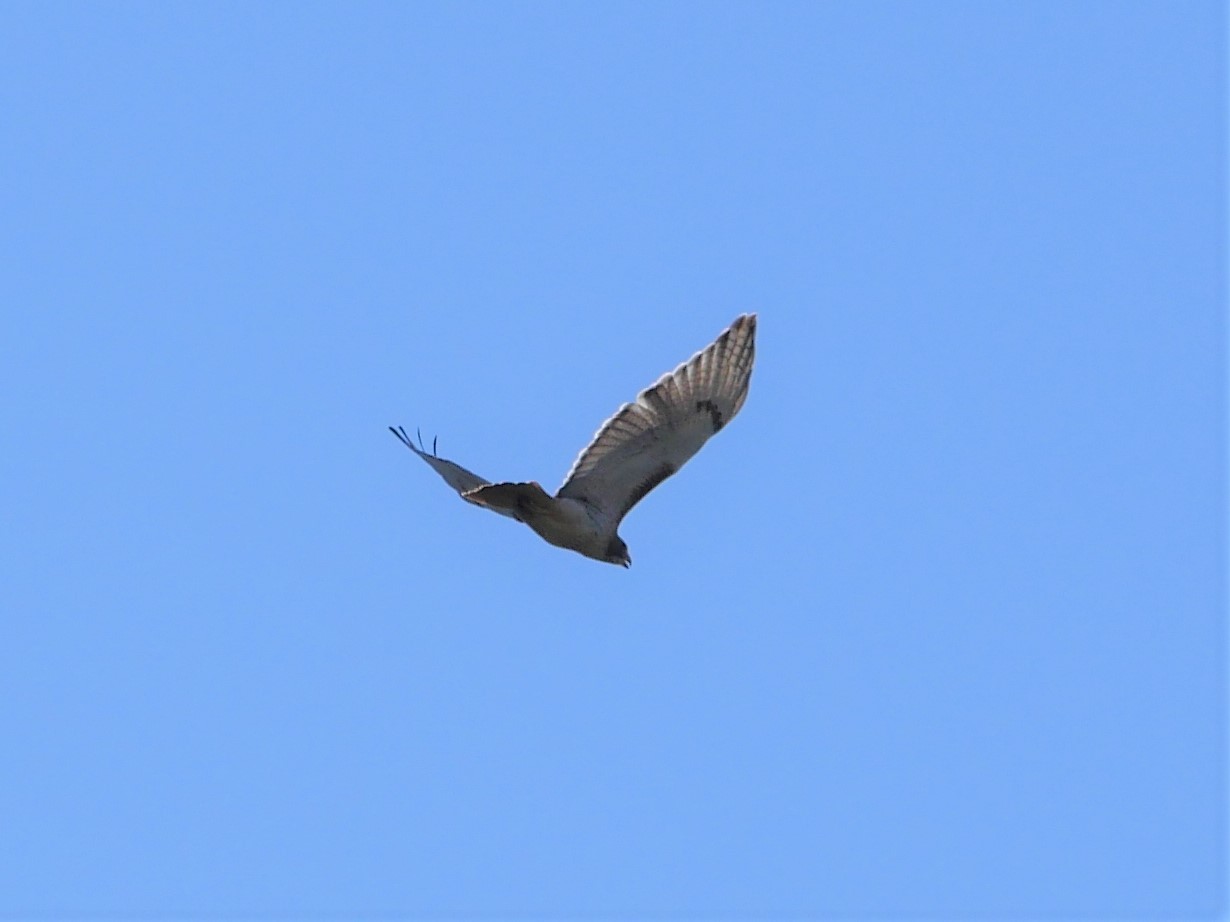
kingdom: Animalia
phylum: Chordata
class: Aves
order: Accipitriformes
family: Accipitridae
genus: Buteo
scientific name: Buteo jamaicensis
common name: Red-tailed hawk
